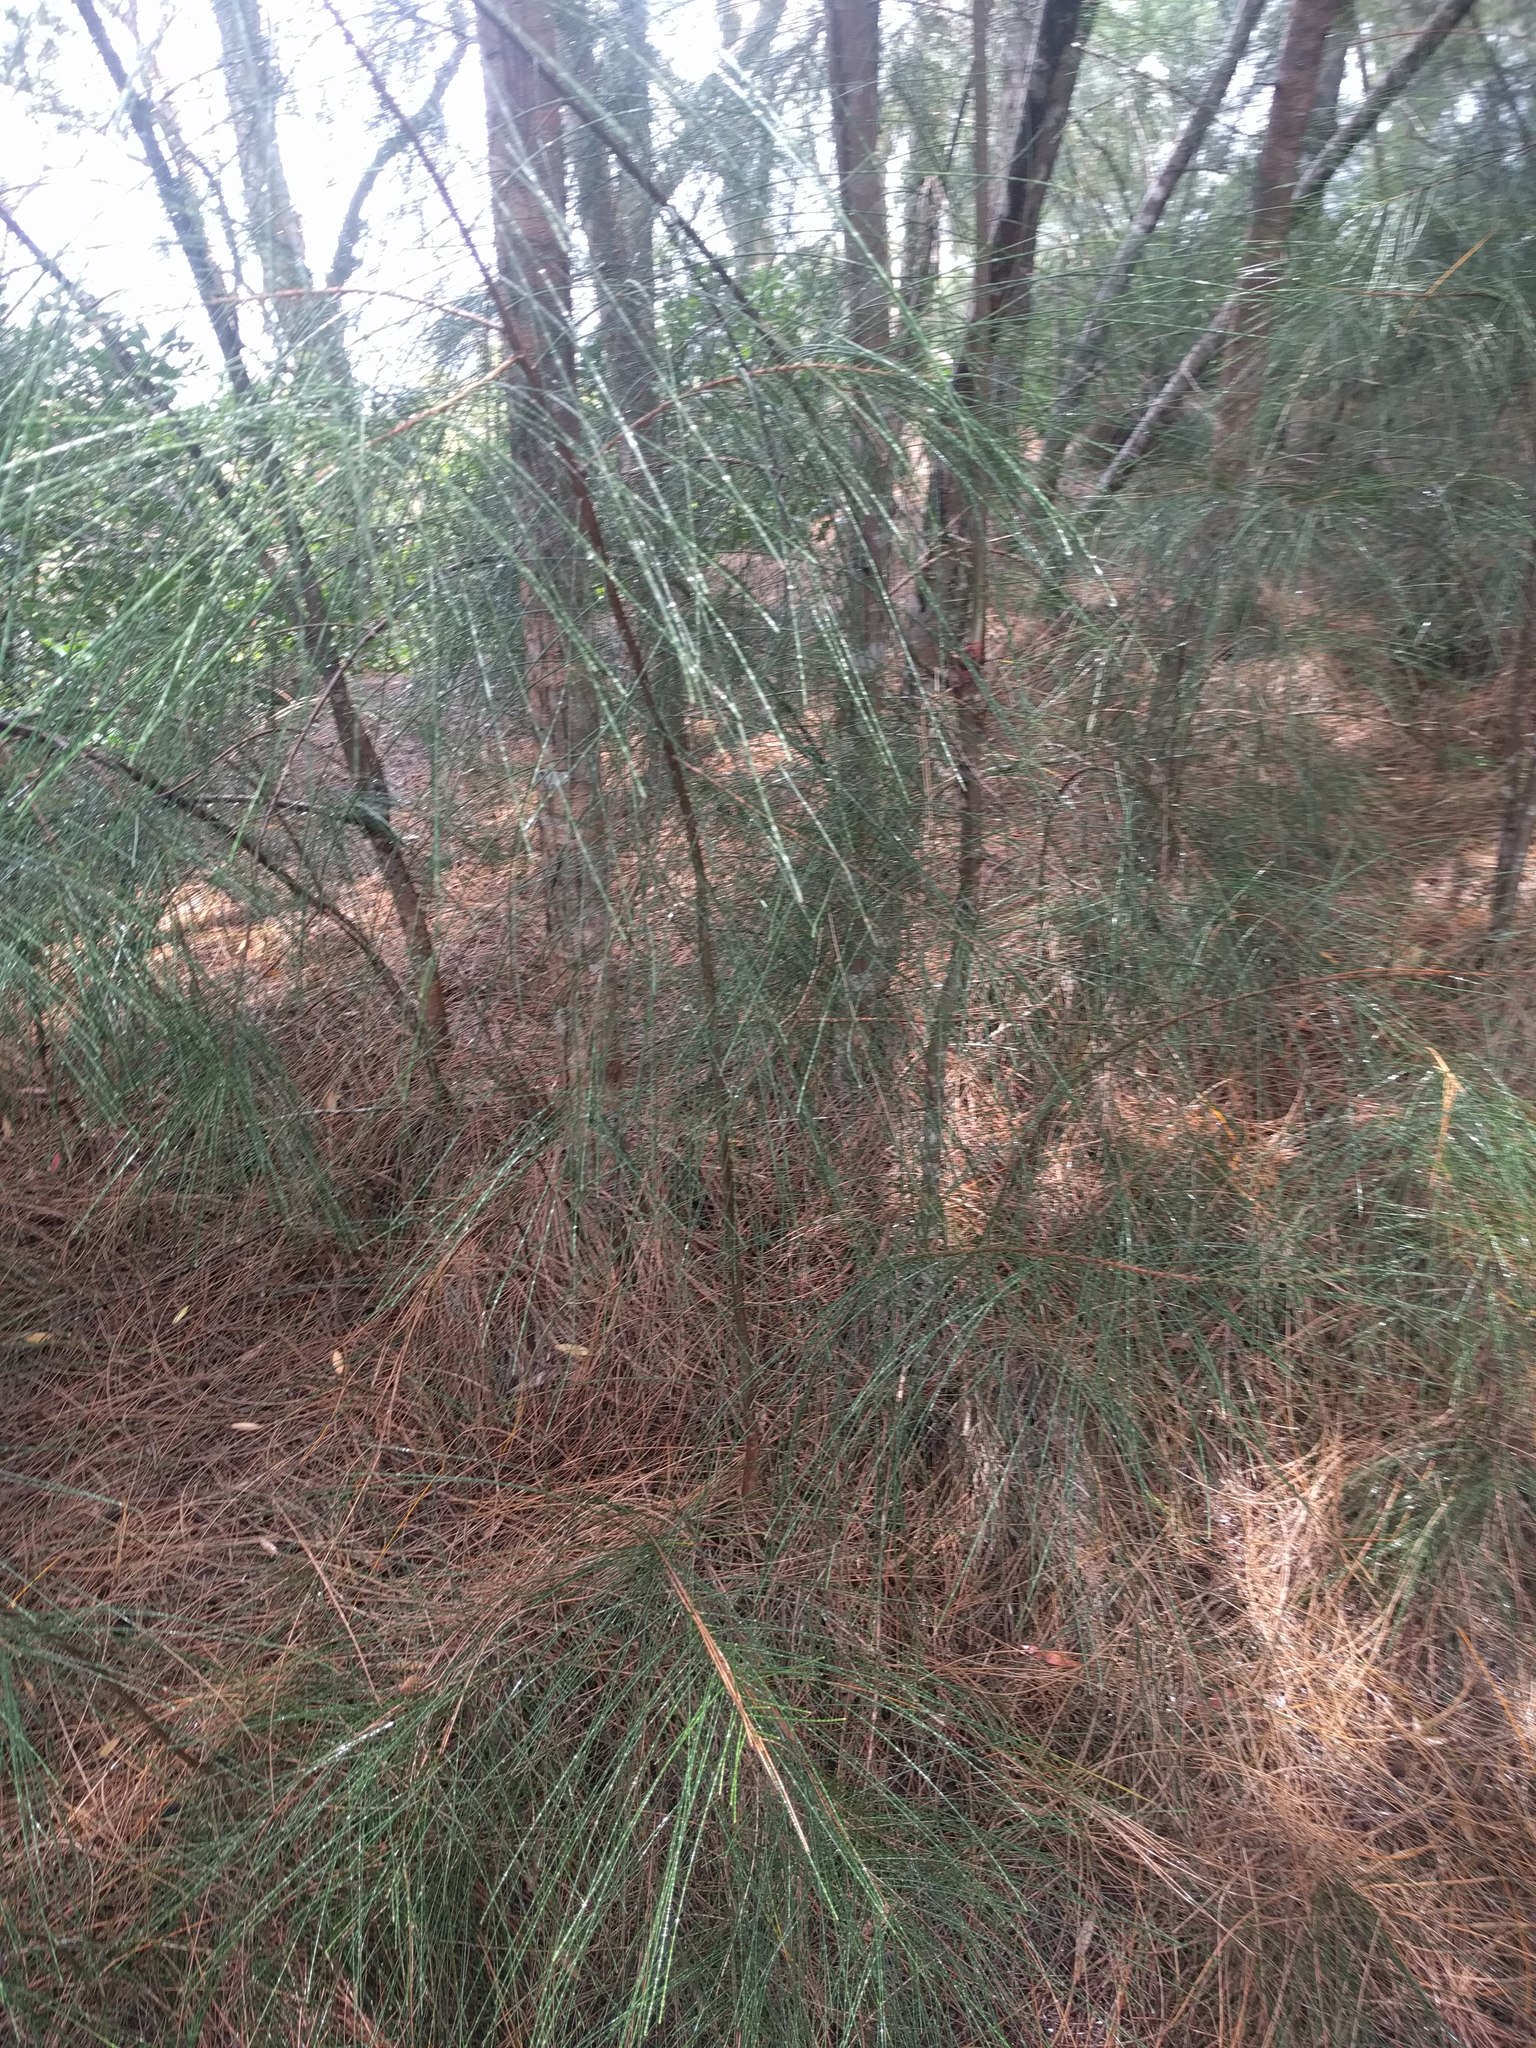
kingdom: Plantae
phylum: Tracheophyta
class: Magnoliopsida
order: Fagales
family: Casuarinaceae
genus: Casuarina
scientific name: Casuarina equisetifolia
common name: Beach sheoak
